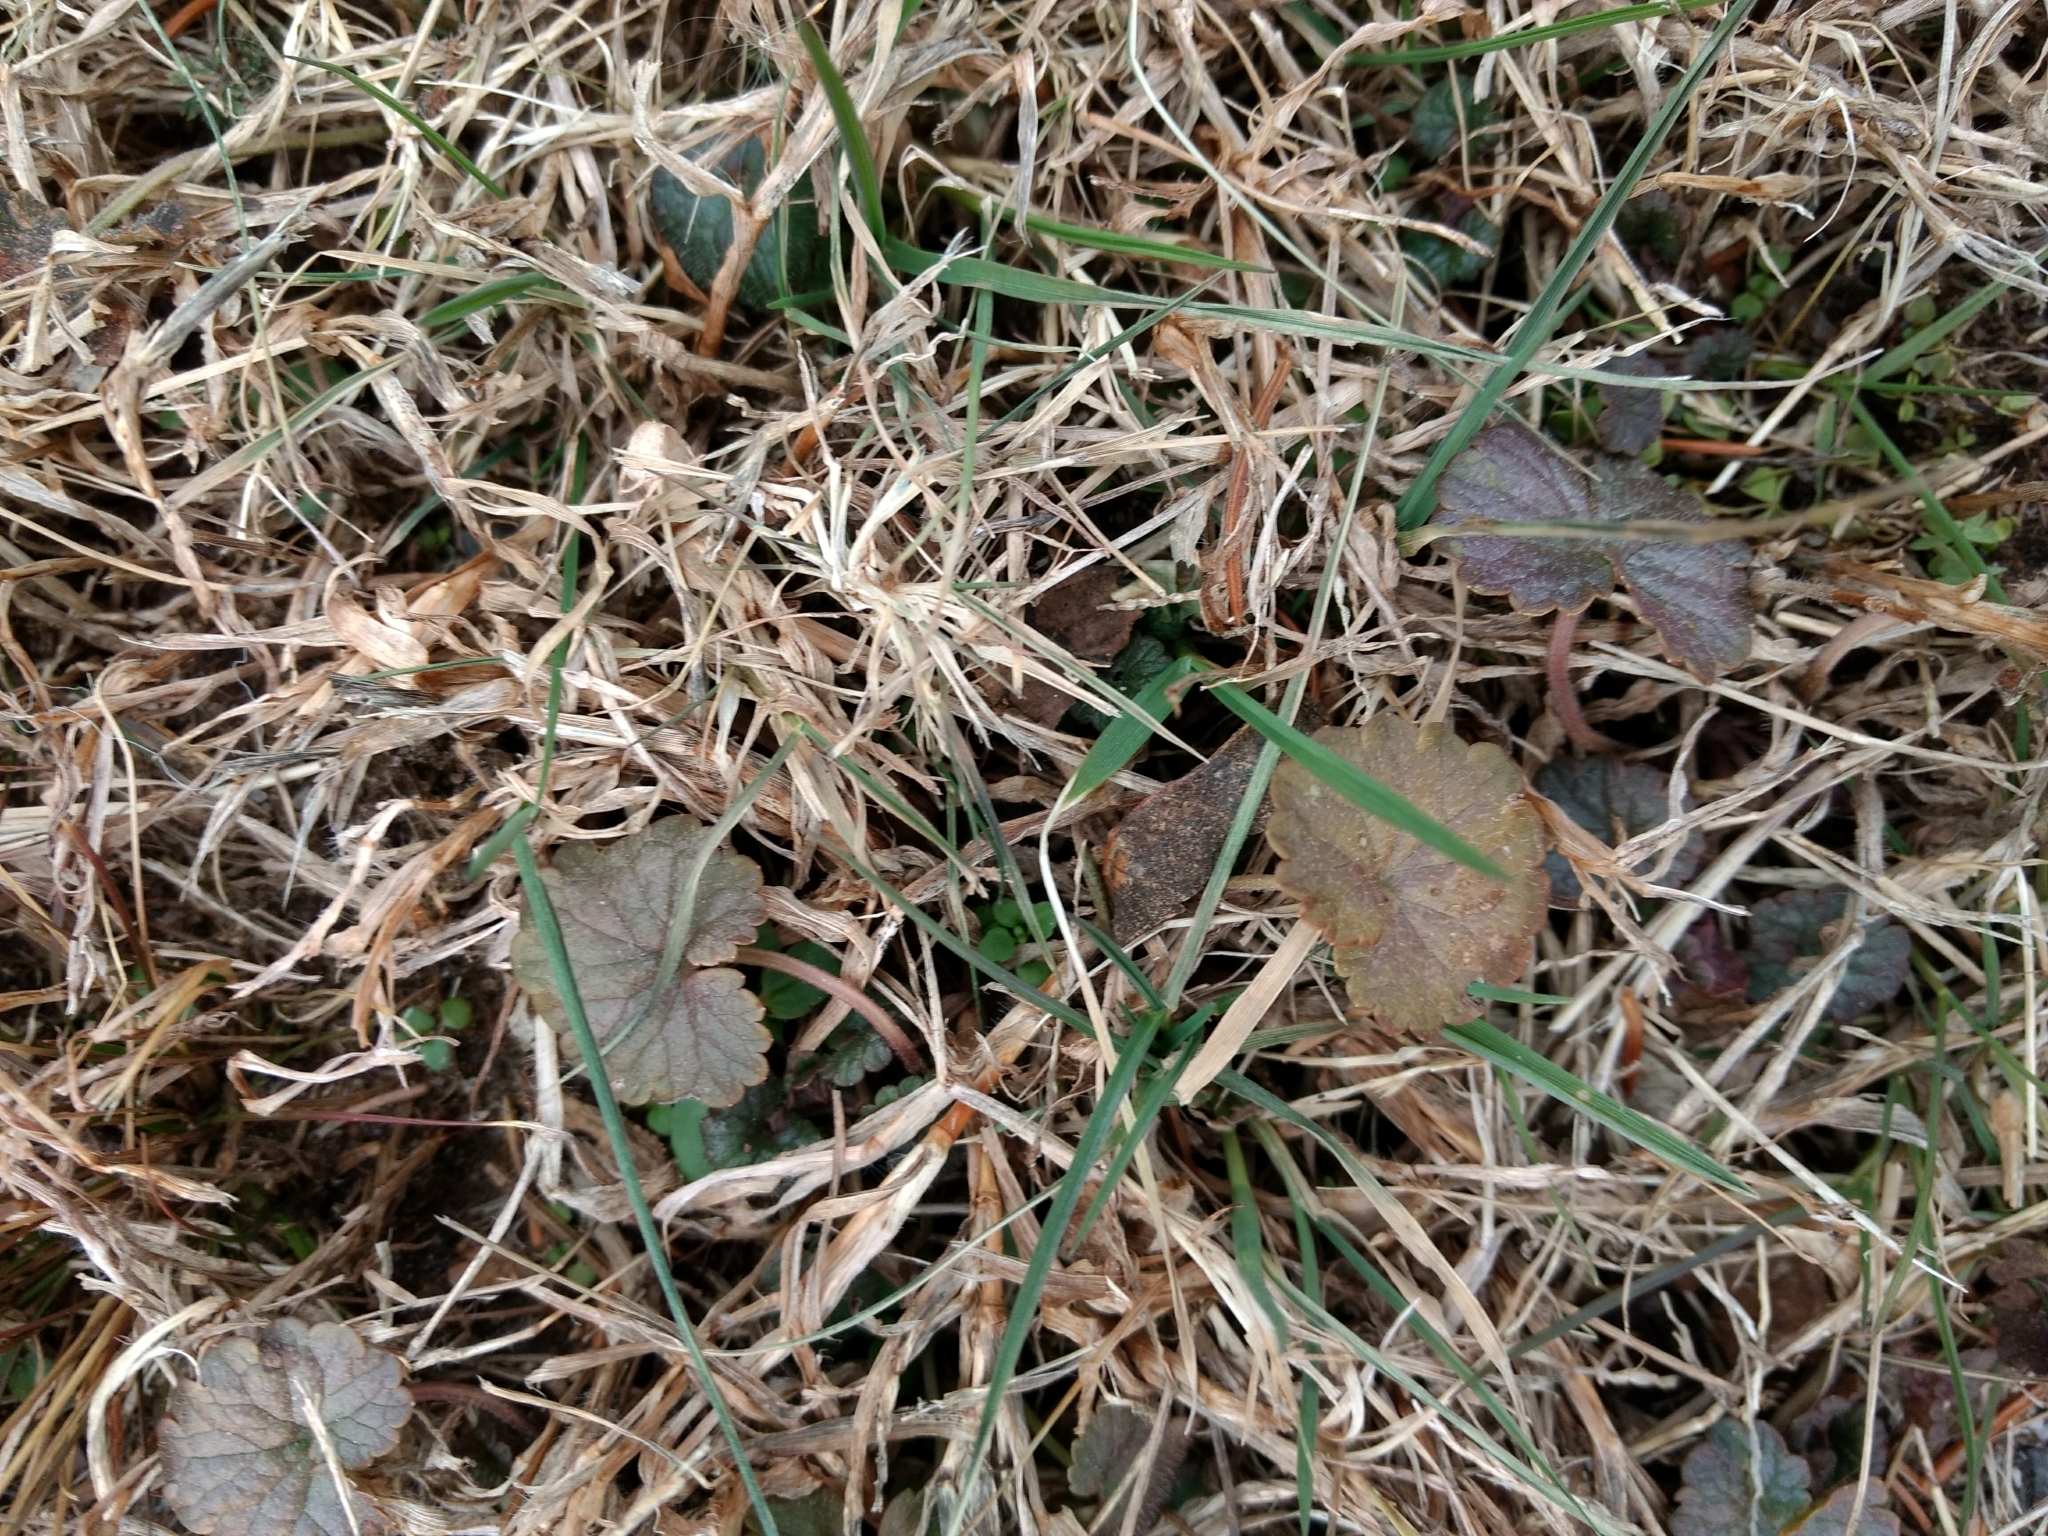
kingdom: Plantae
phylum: Tracheophyta
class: Magnoliopsida
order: Lamiales
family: Lamiaceae
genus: Glechoma
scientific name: Glechoma hederacea
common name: Ground ivy
